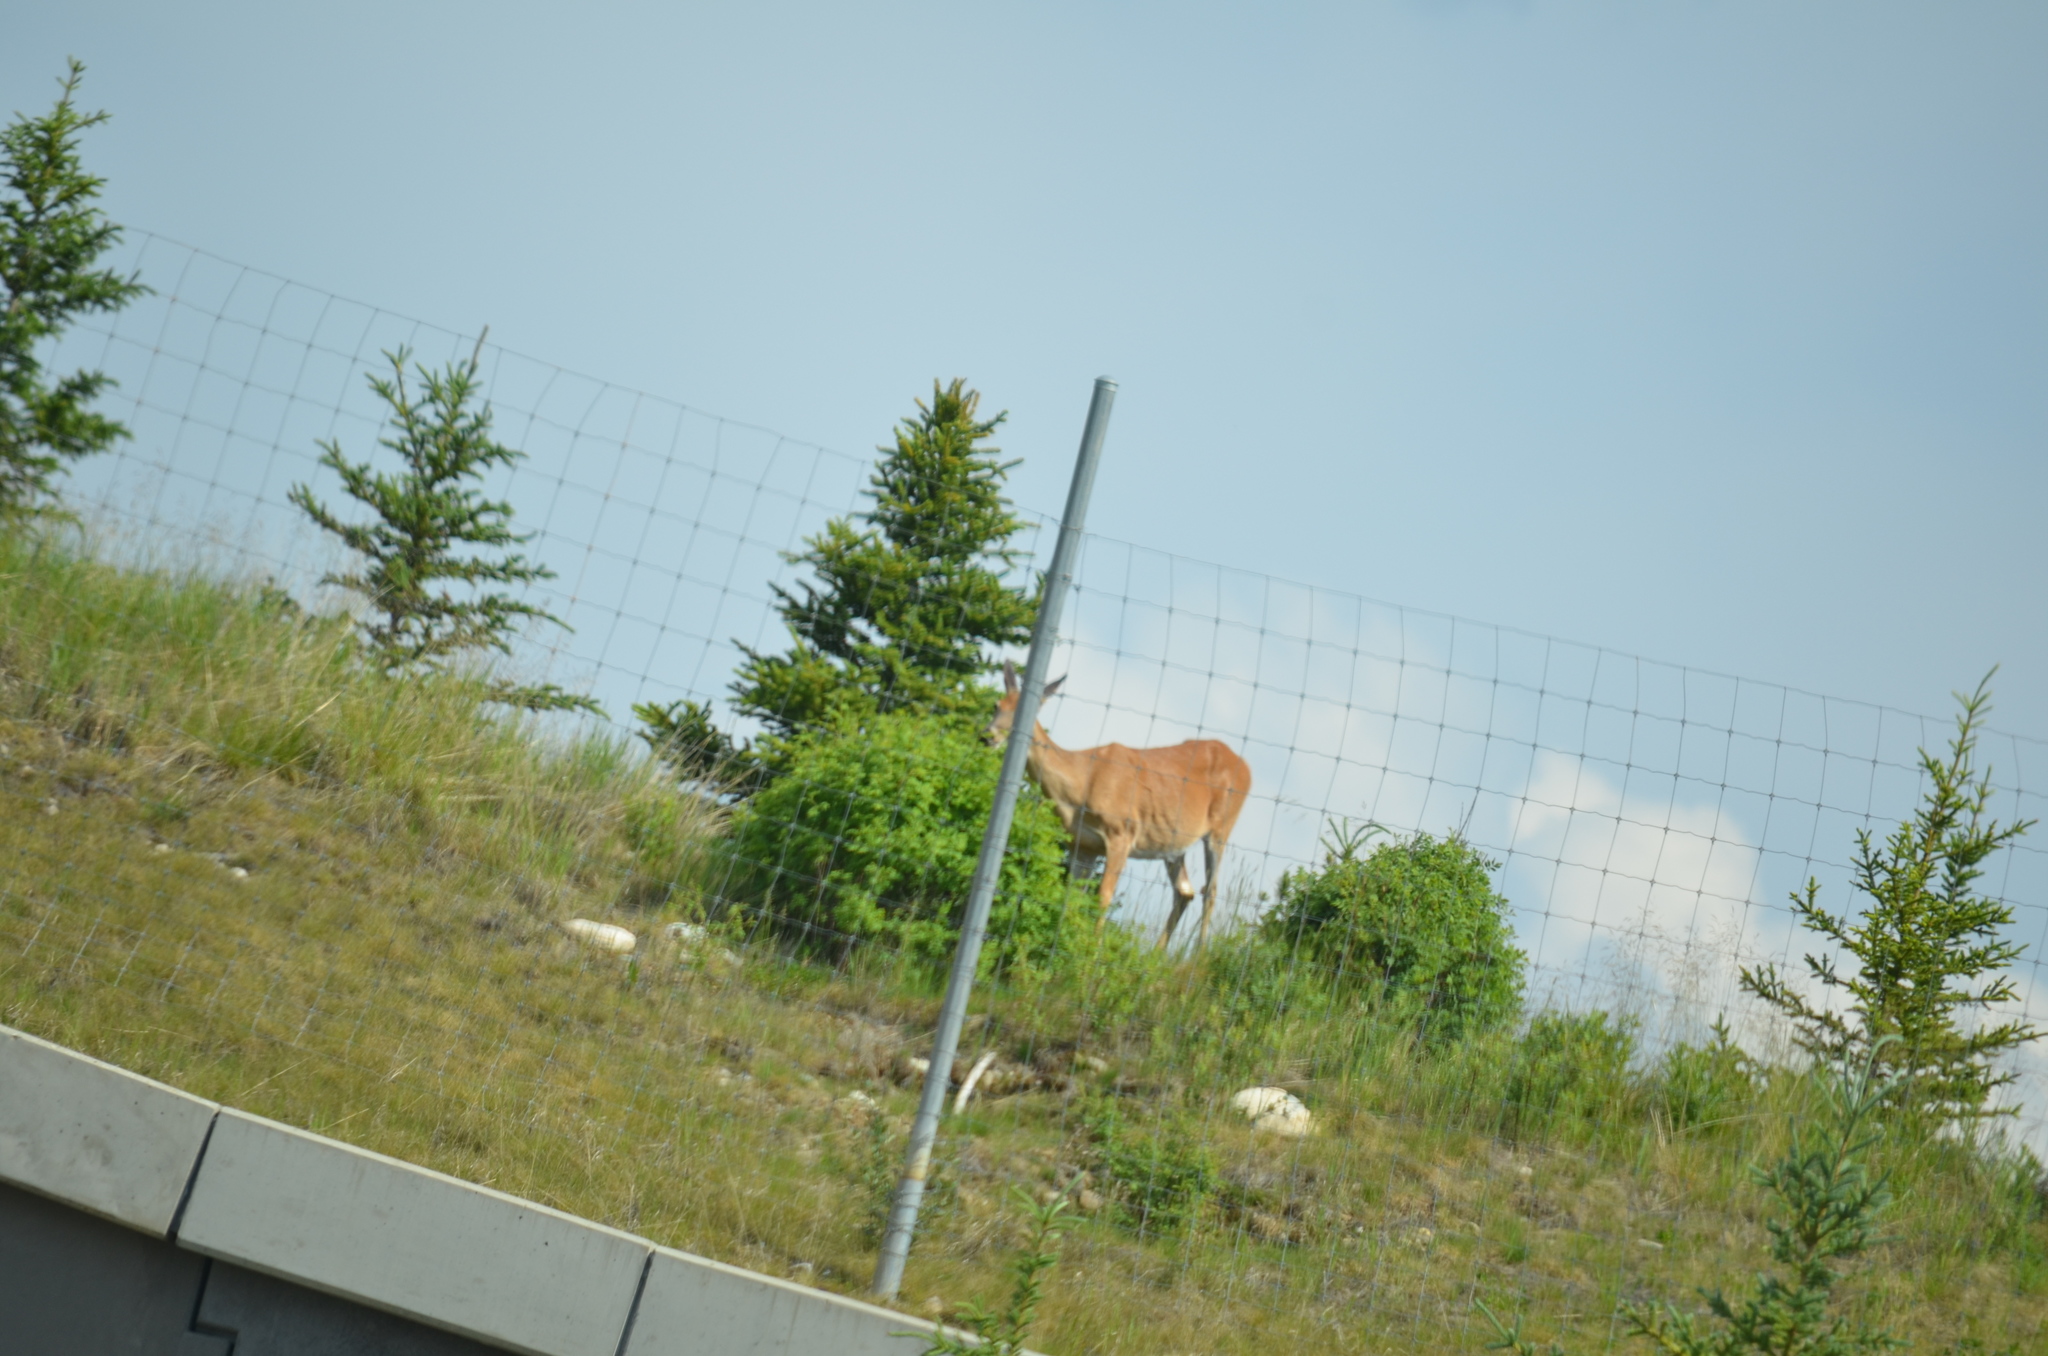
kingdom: Animalia
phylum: Chordata
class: Mammalia
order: Artiodactyla
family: Cervidae
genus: Odocoileus
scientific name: Odocoileus virginianus
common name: White-tailed deer
